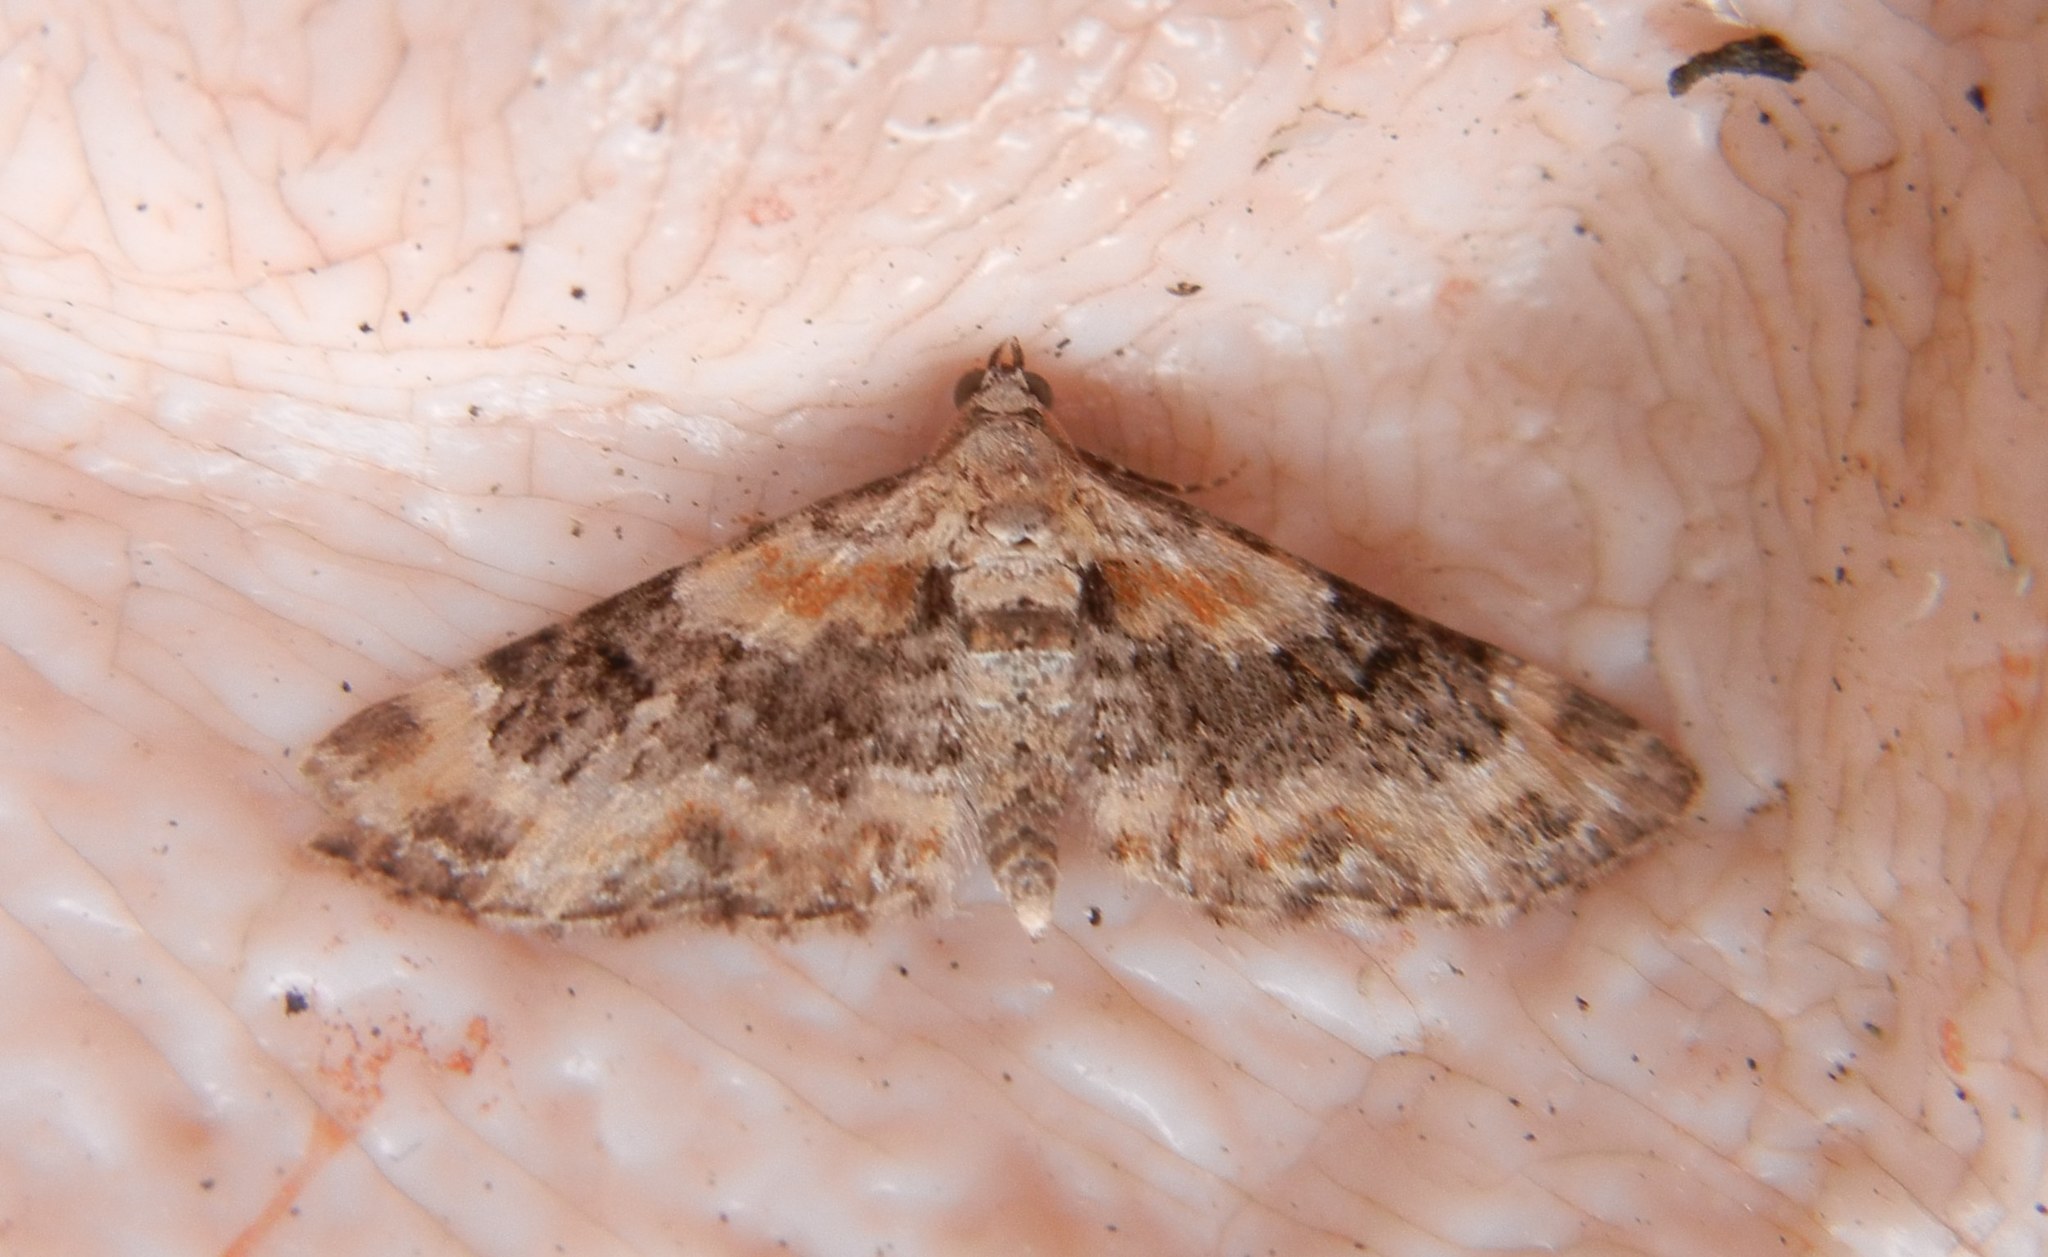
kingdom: Animalia
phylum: Arthropoda
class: Insecta
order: Lepidoptera
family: Geometridae
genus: Eupithecia
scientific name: Eupithecia pulchellata
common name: Foxglove pug
